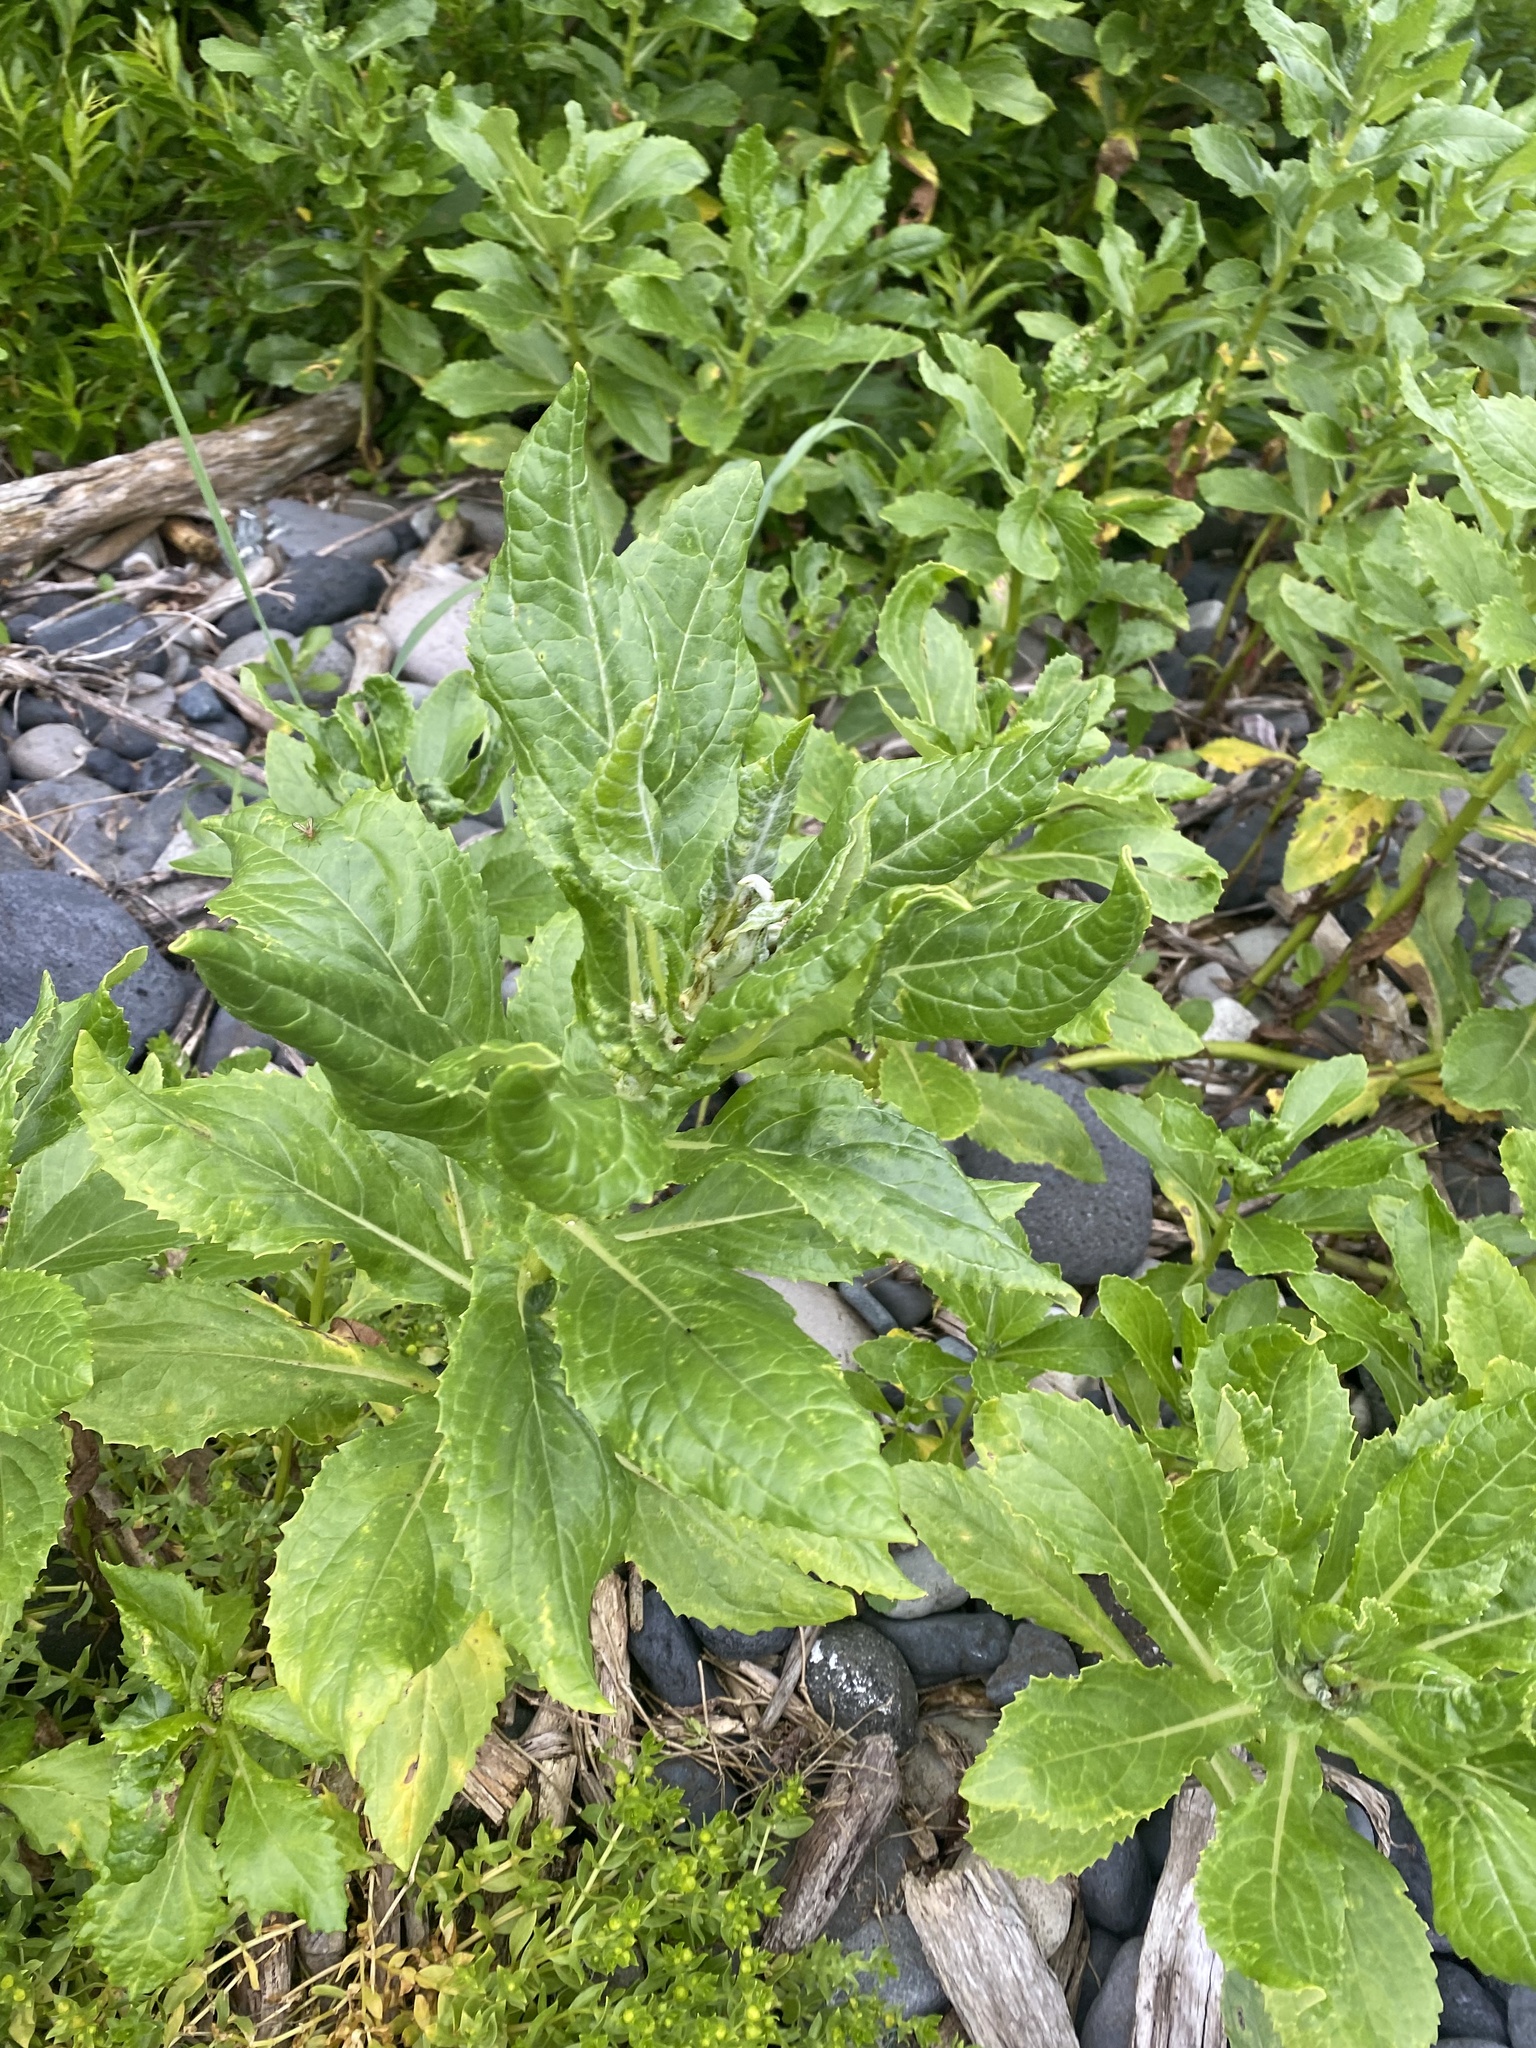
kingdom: Plantae
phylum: Tracheophyta
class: Magnoliopsida
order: Asterales
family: Asteraceae
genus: Jacobaea
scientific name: Jacobaea pseudoarnica
